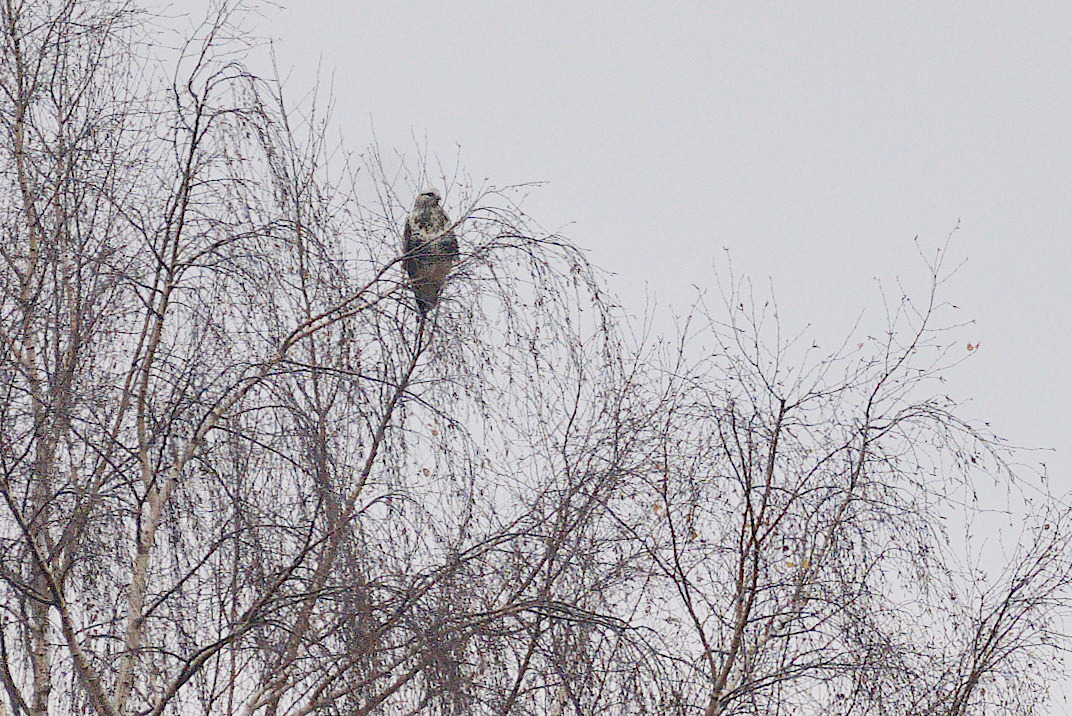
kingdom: Animalia
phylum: Chordata
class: Aves
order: Accipitriformes
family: Accipitridae
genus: Buteo
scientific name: Buteo lagopus
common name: Rough-legged buzzard
